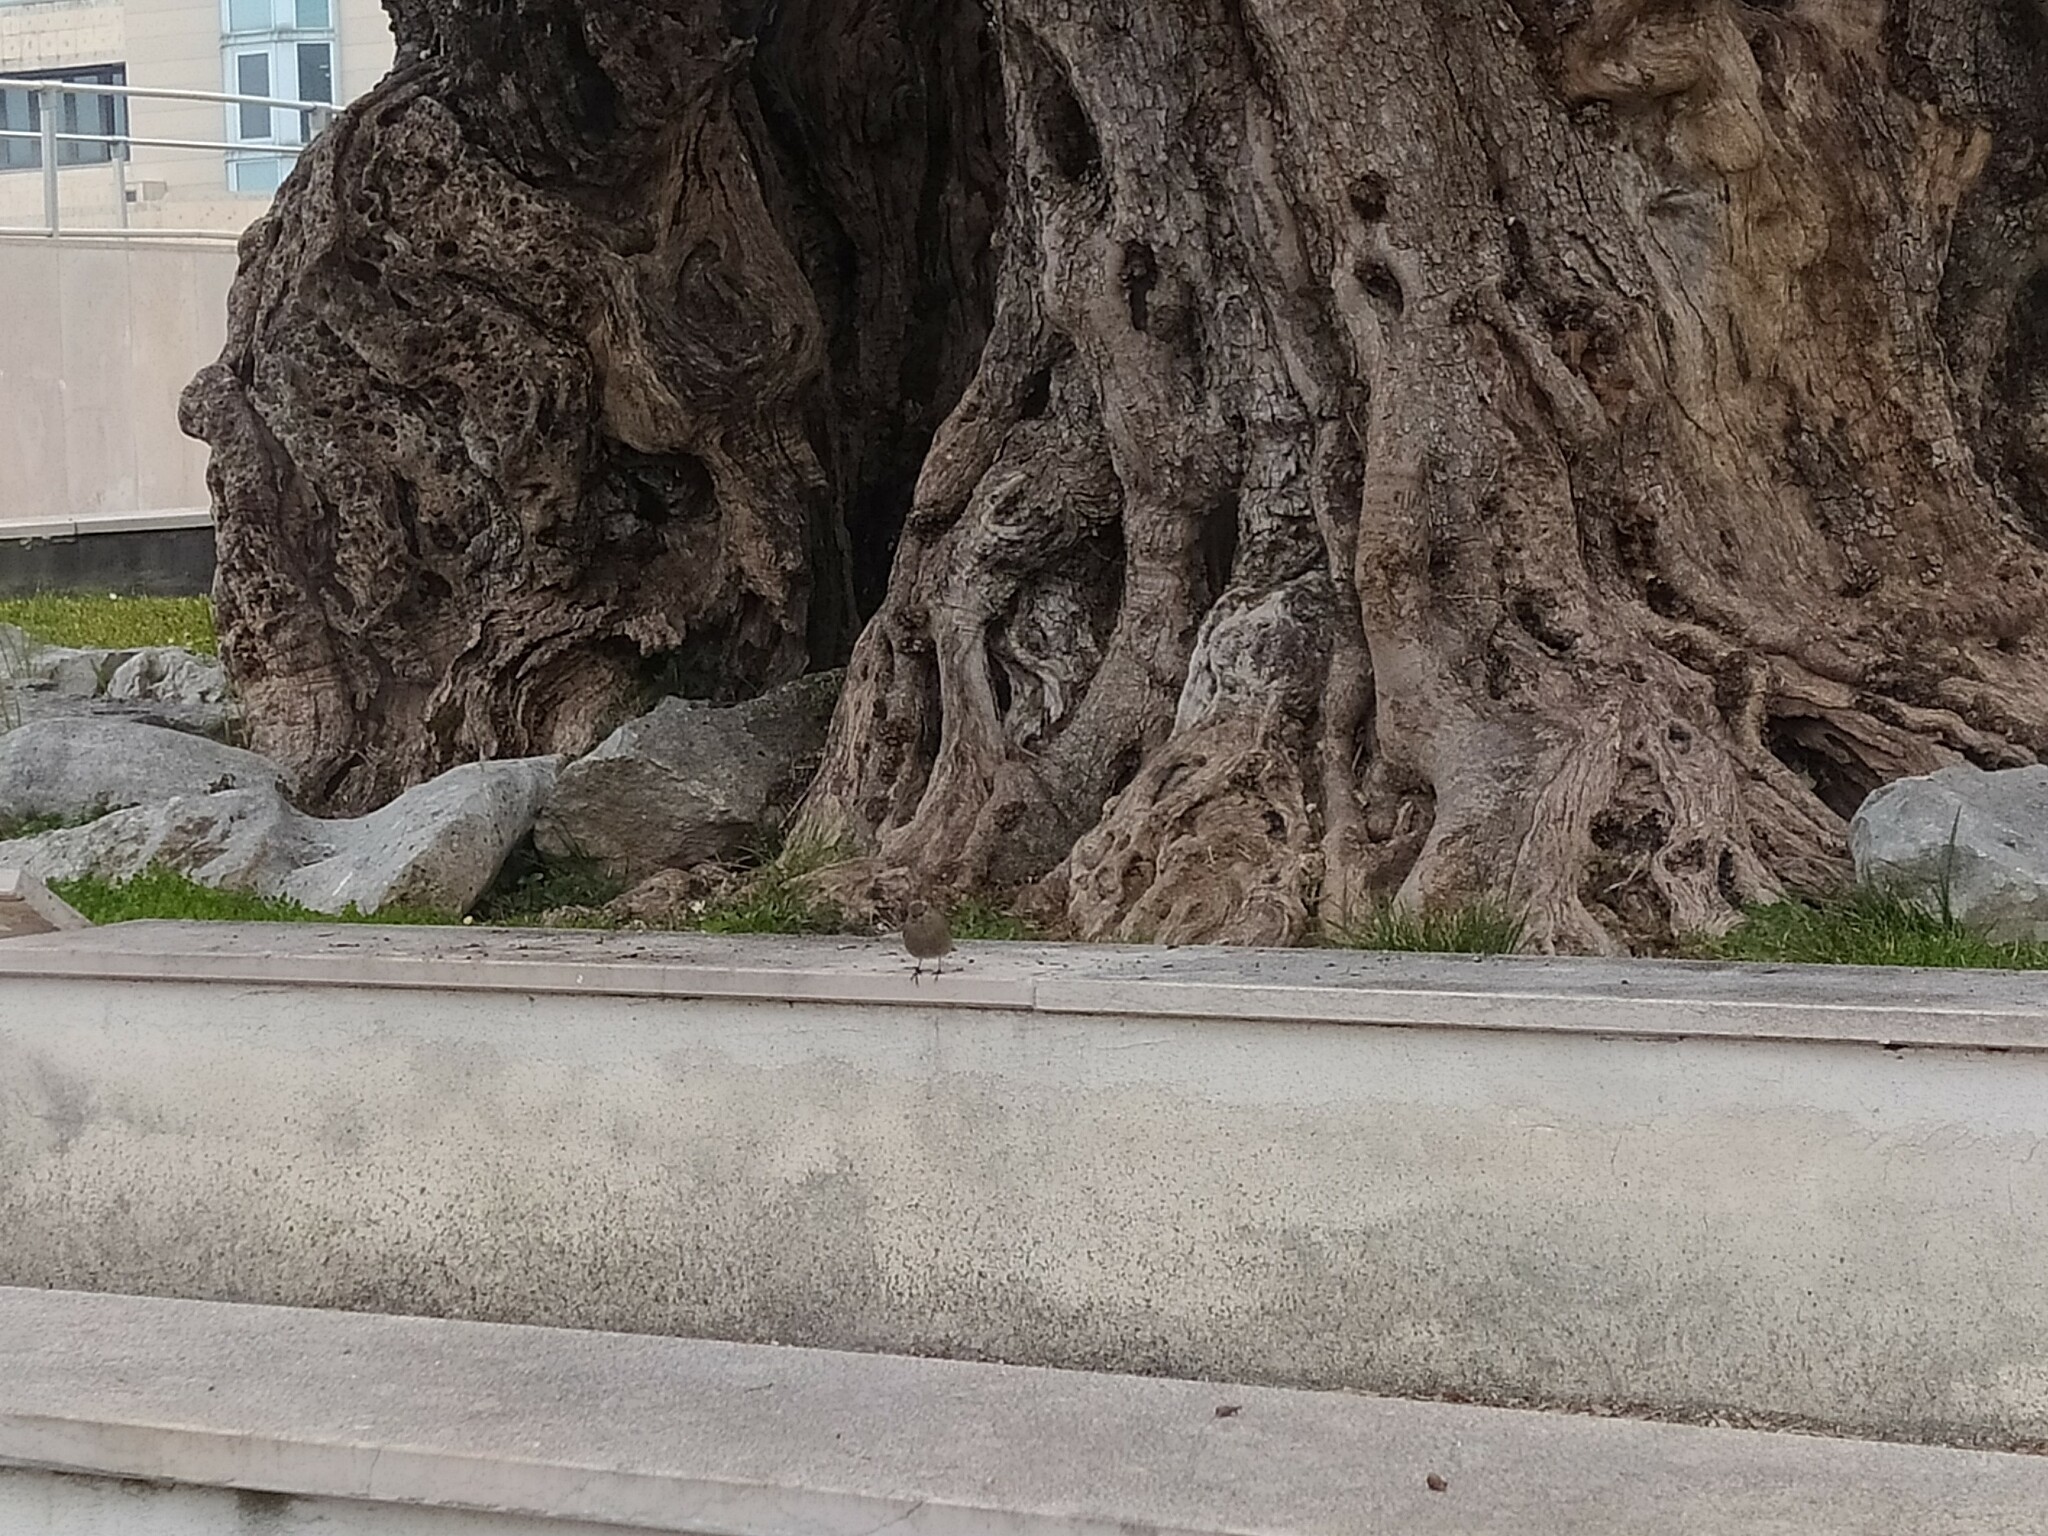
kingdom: Animalia
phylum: Chordata
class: Aves
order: Passeriformes
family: Muscicapidae
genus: Phoenicurus
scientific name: Phoenicurus ochruros
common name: Black redstart
